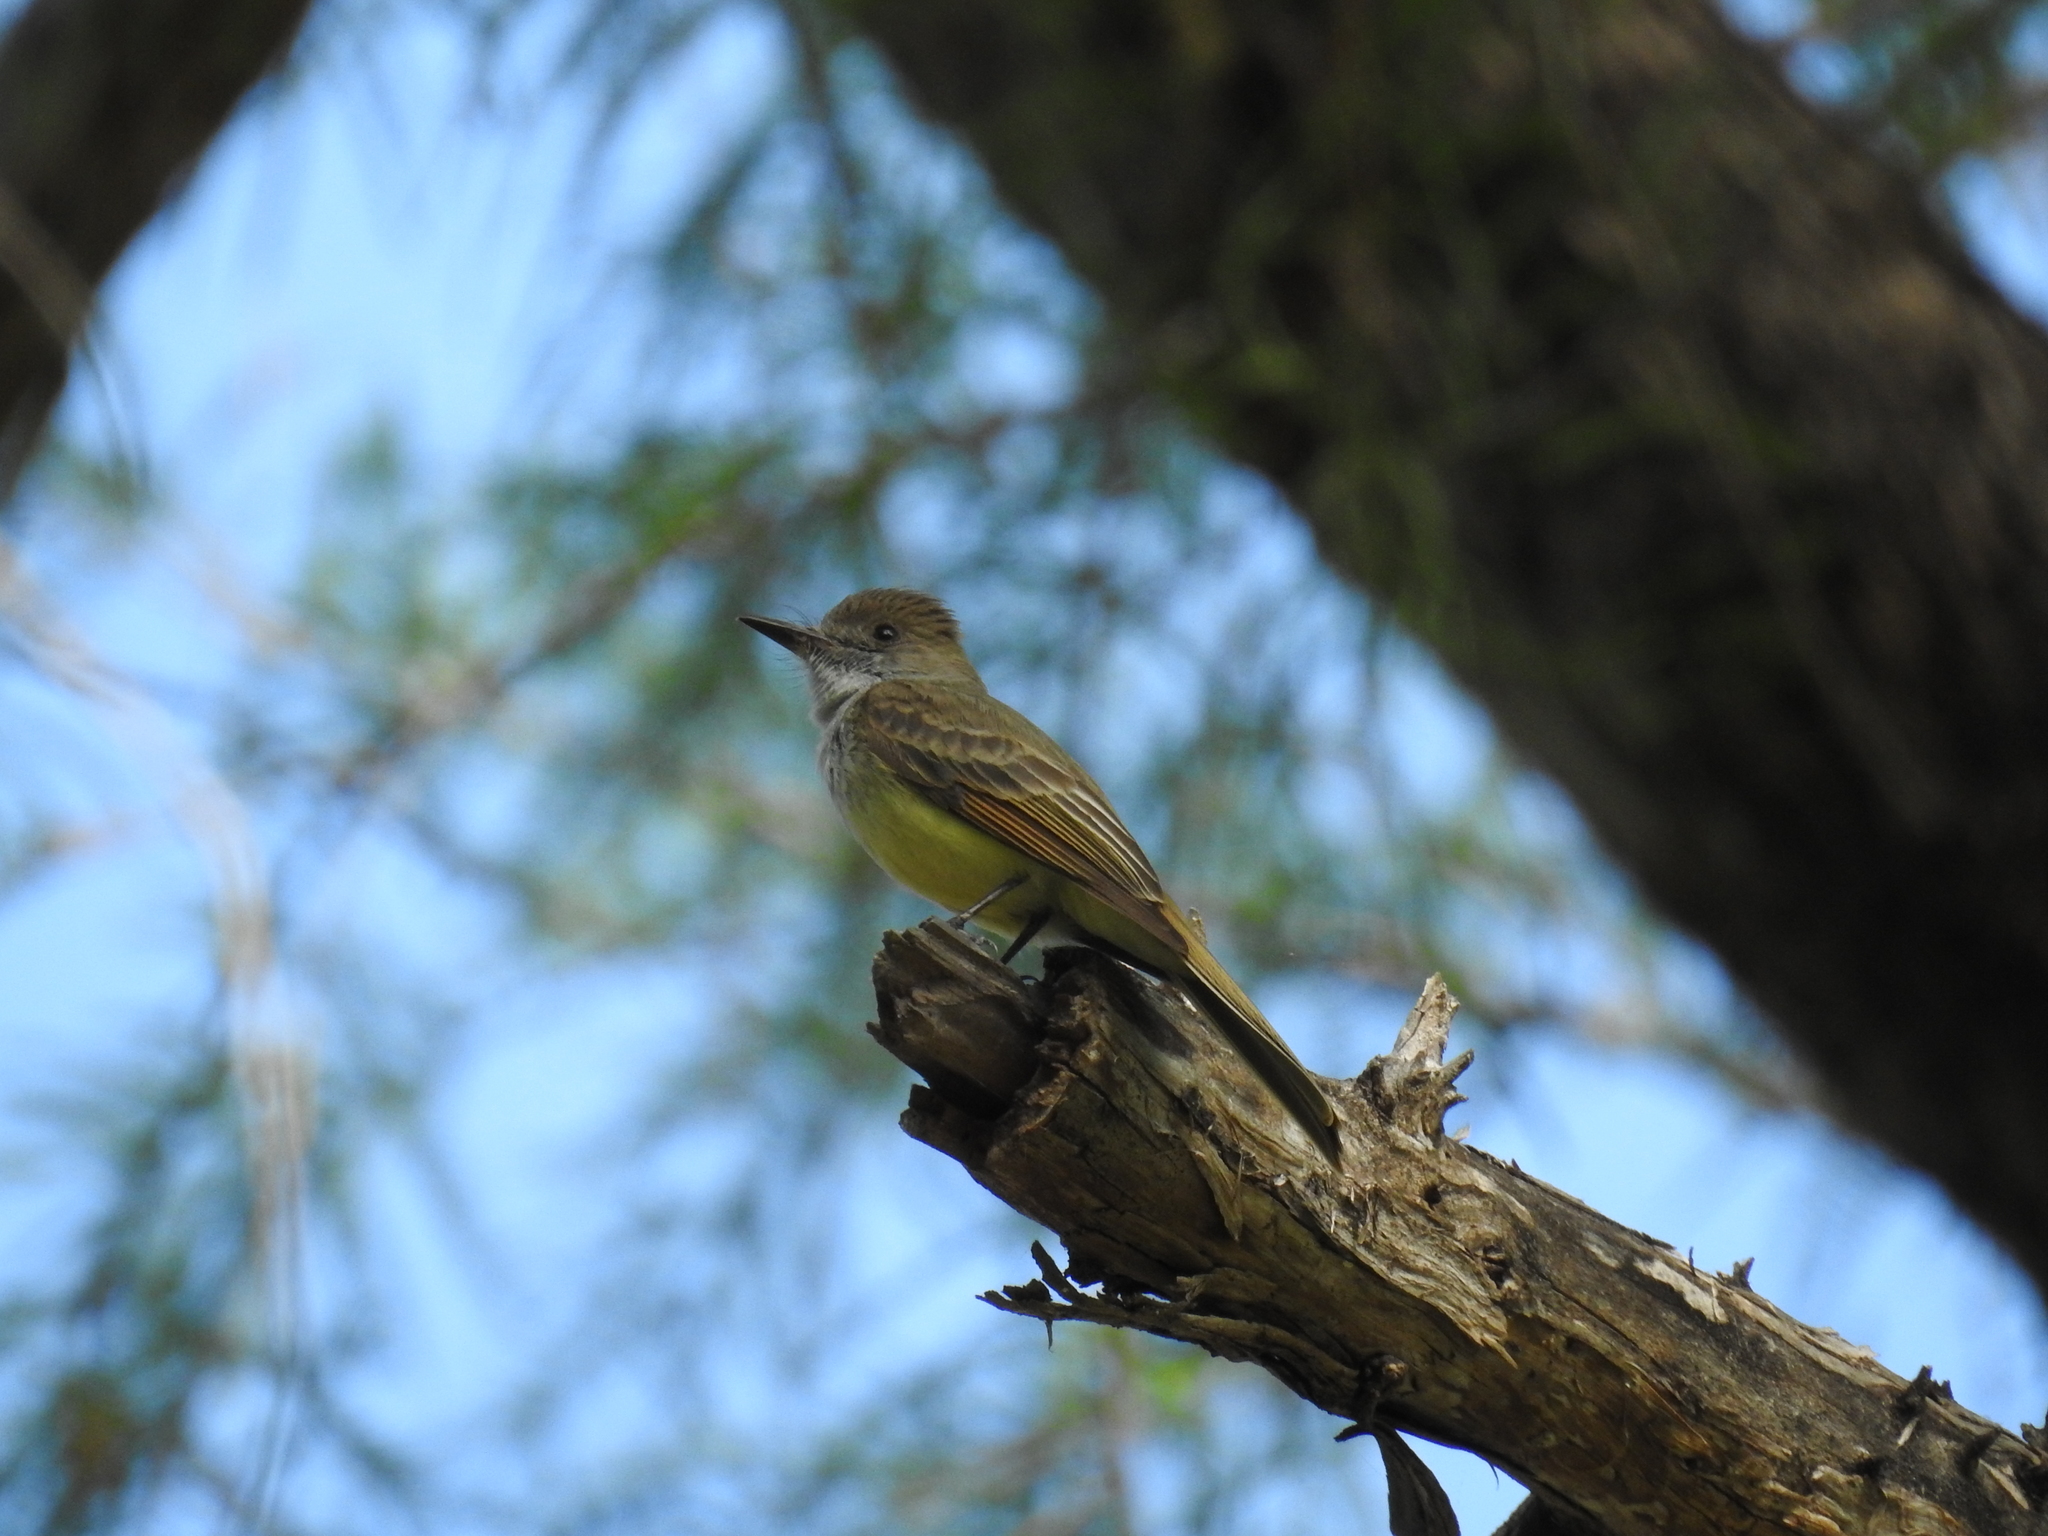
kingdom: Animalia
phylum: Chordata
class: Aves
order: Passeriformes
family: Tyrannidae
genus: Myiarchus
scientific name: Myiarchus tuberculifer
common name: Dusky-capped flycatcher
